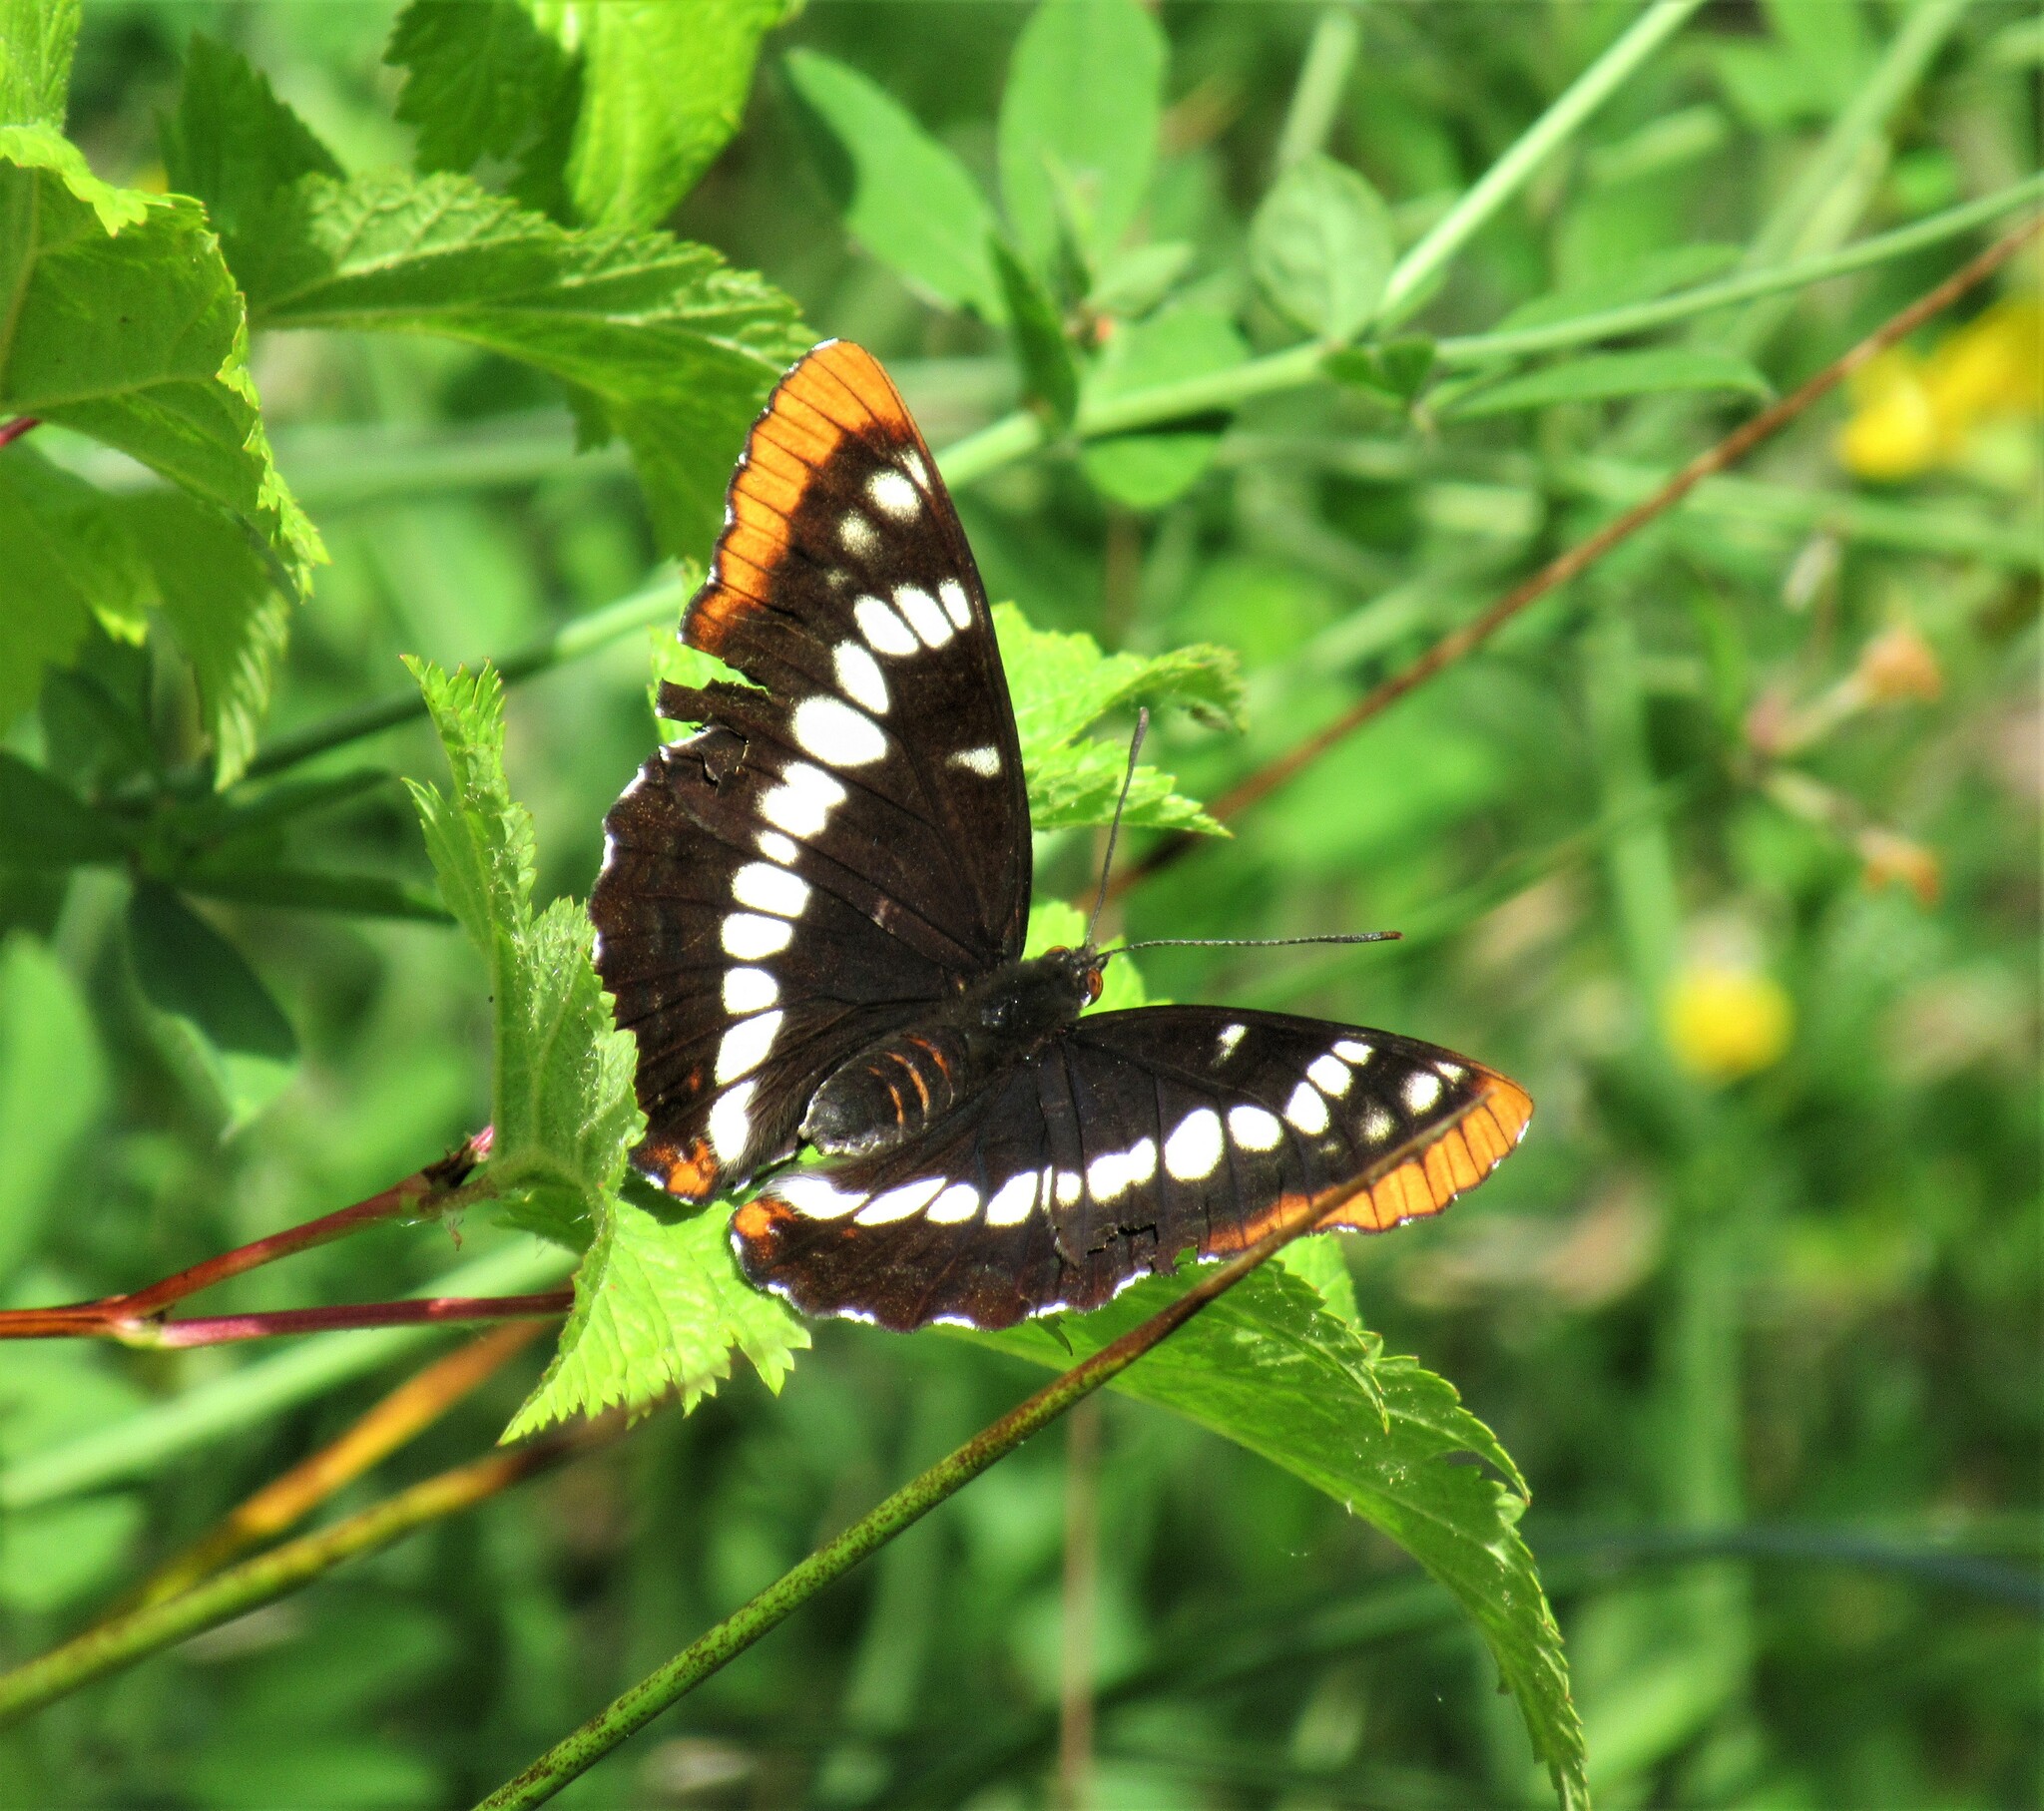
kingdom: Animalia
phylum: Arthropoda
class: Insecta
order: Lepidoptera
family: Nymphalidae
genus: Limenitis
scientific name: Limenitis lorquini
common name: Lorquin's admiral
